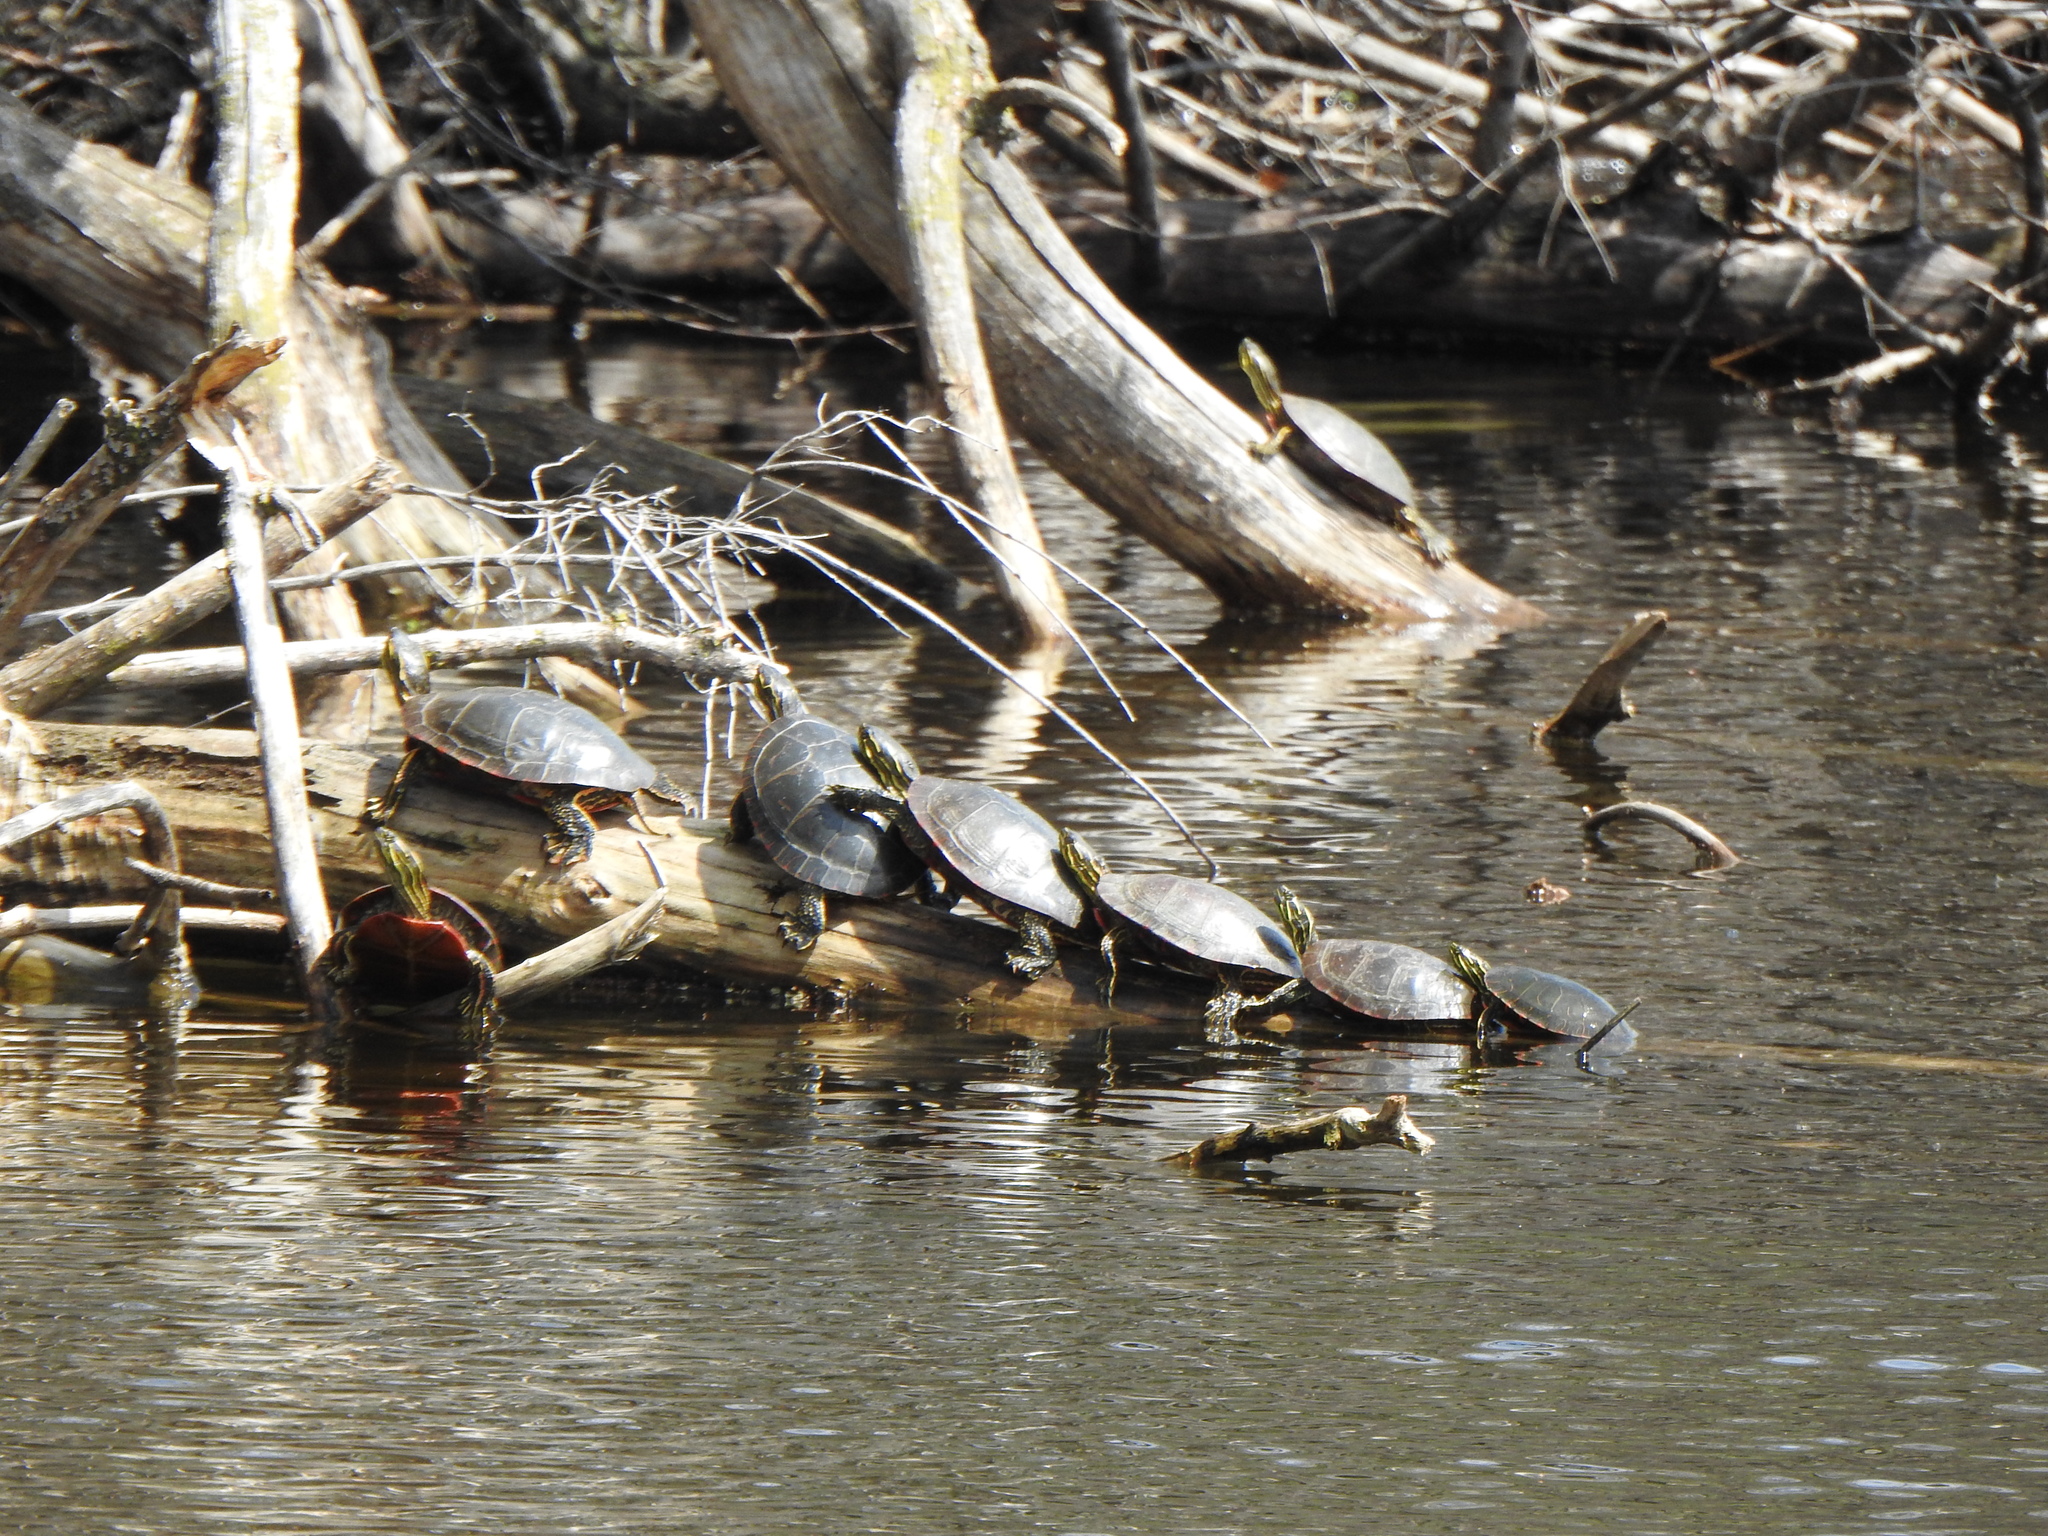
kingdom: Animalia
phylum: Chordata
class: Testudines
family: Emydidae
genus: Chrysemys
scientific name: Chrysemys picta
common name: Painted turtle
